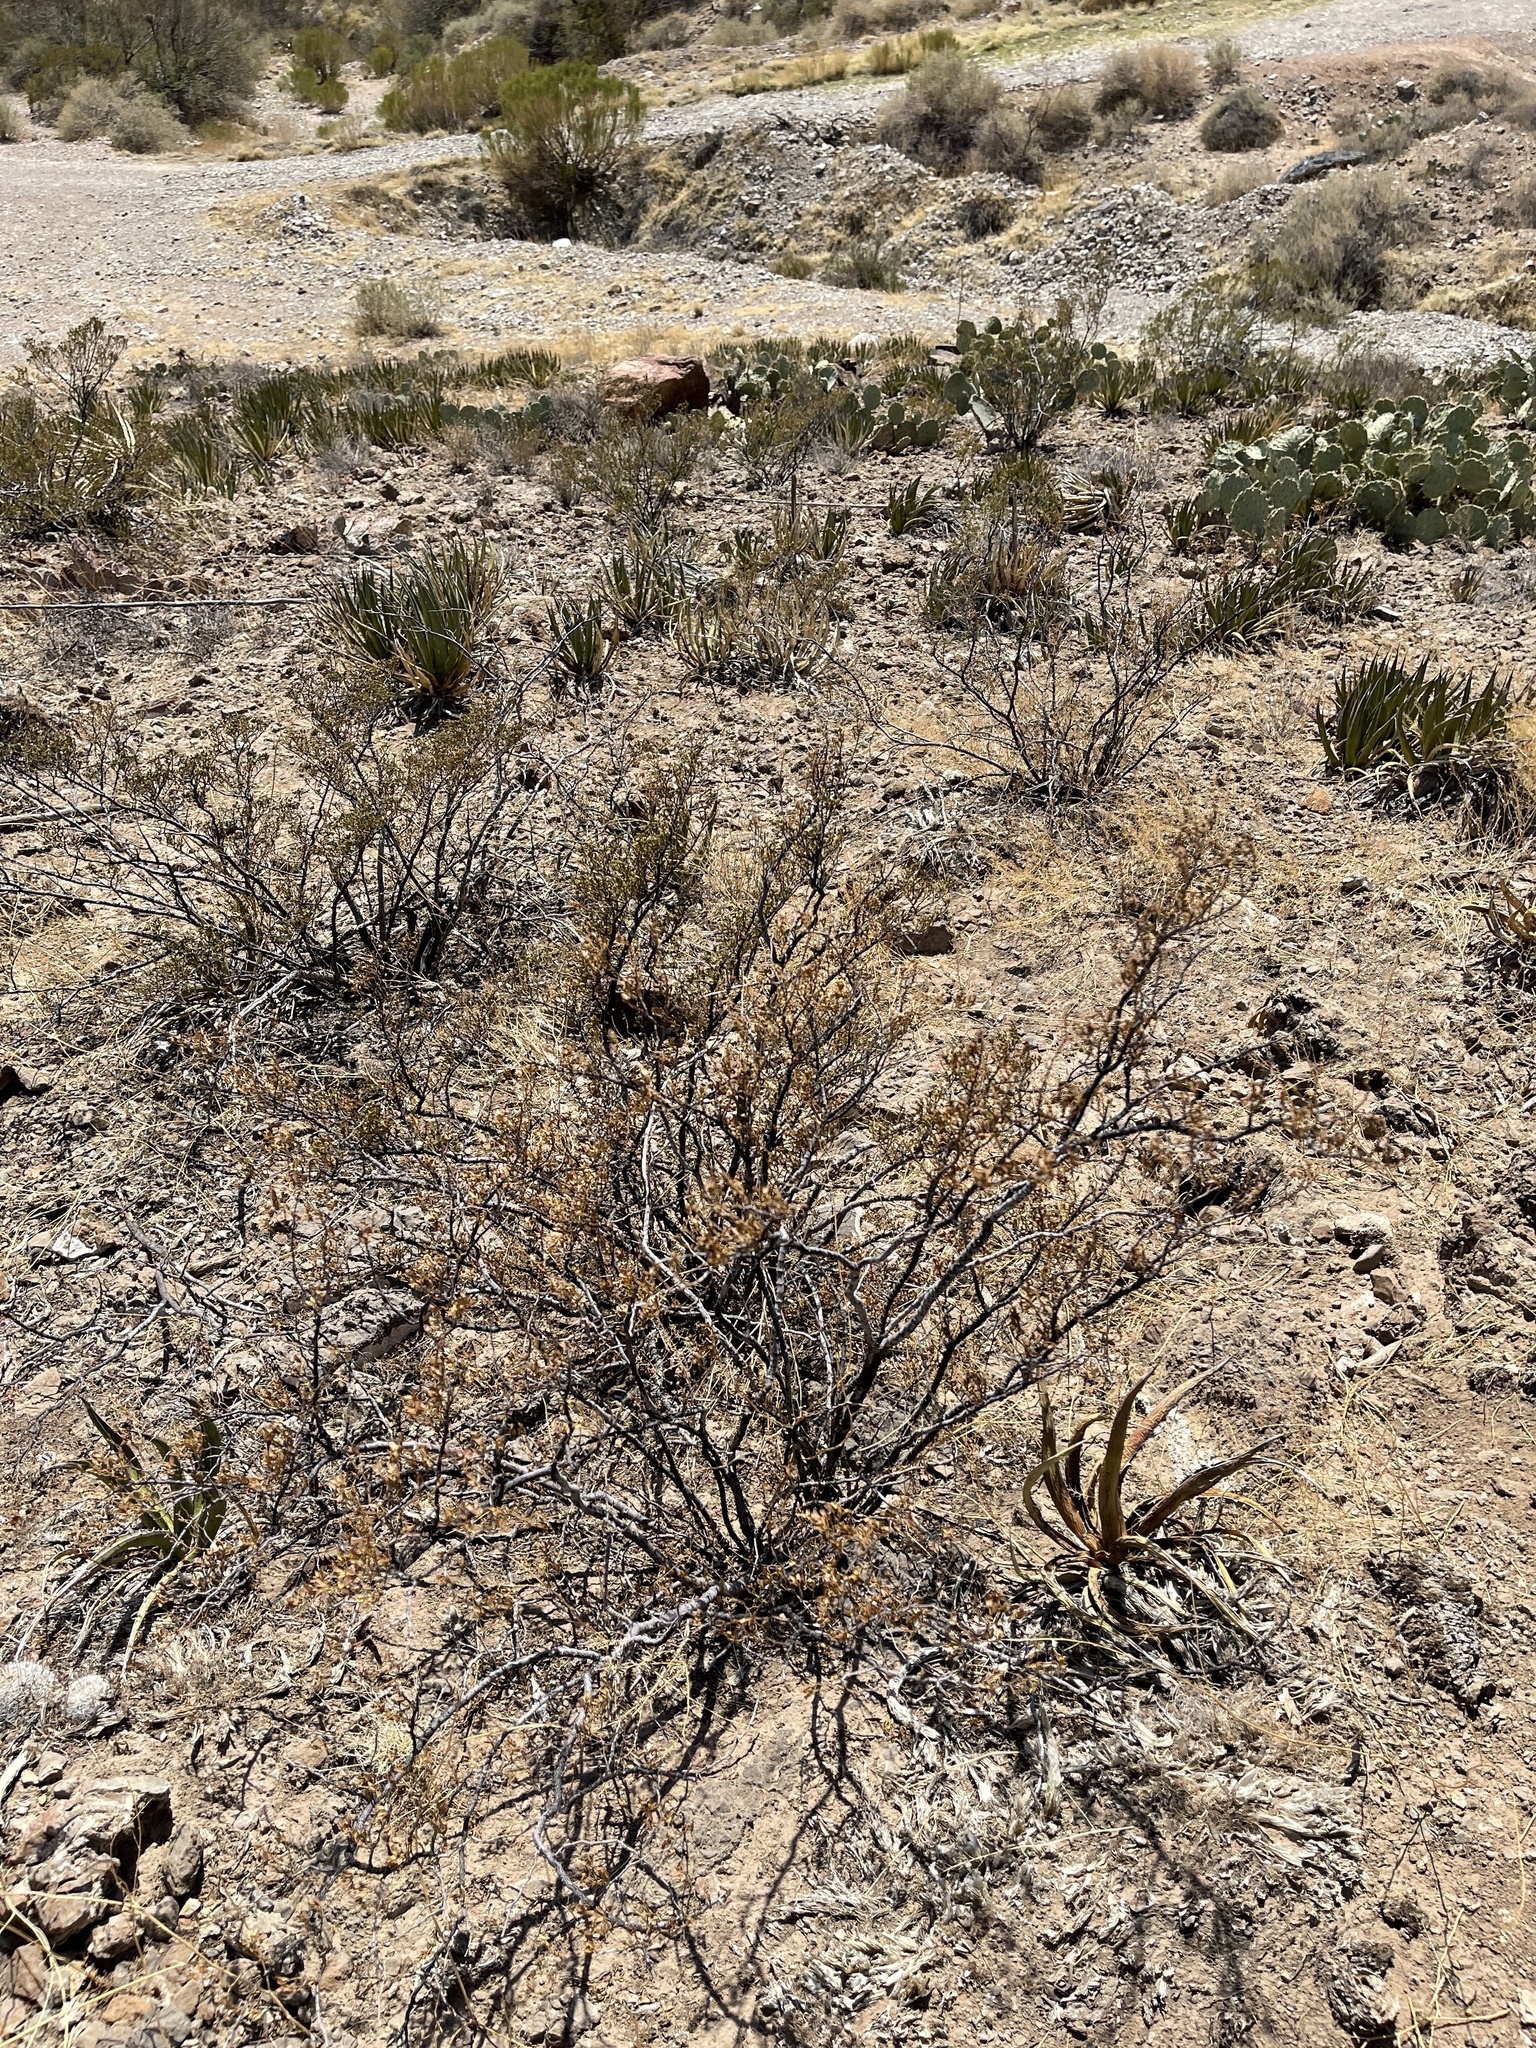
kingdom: Plantae
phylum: Tracheophyta
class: Magnoliopsida
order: Zygophyllales
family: Zygophyllaceae
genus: Larrea
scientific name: Larrea tridentata
